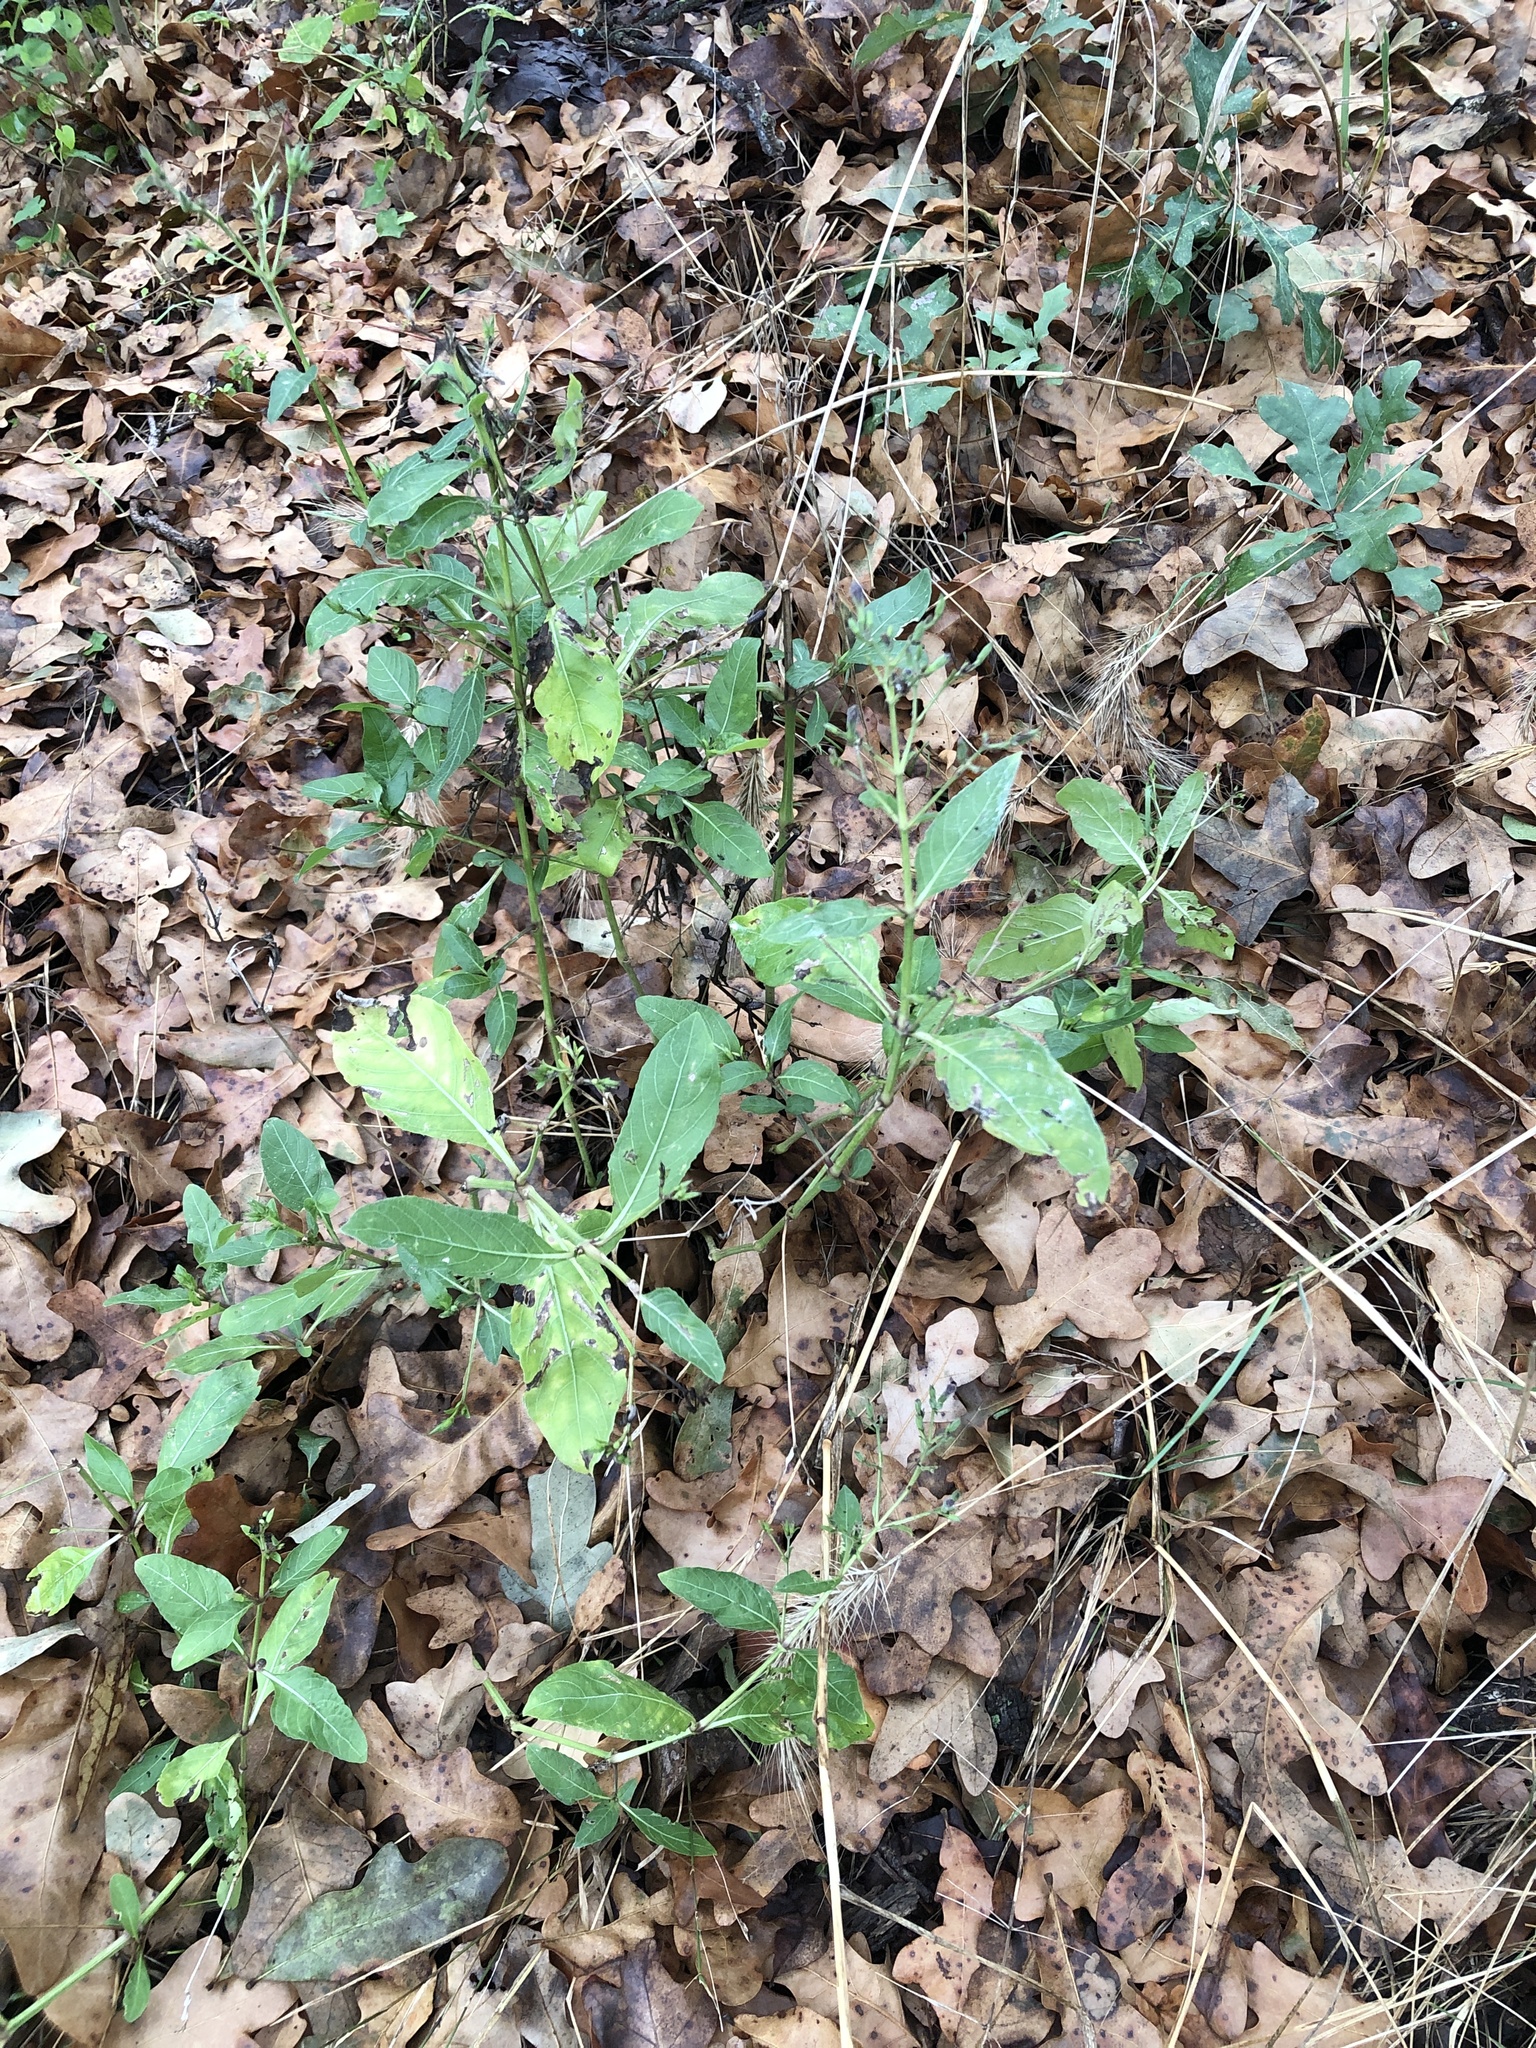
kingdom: Plantae
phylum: Tracheophyta
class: Magnoliopsida
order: Lamiales
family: Acanthaceae
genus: Ruellia
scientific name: Ruellia ciliatiflora
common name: Hairyflower wild petunia
